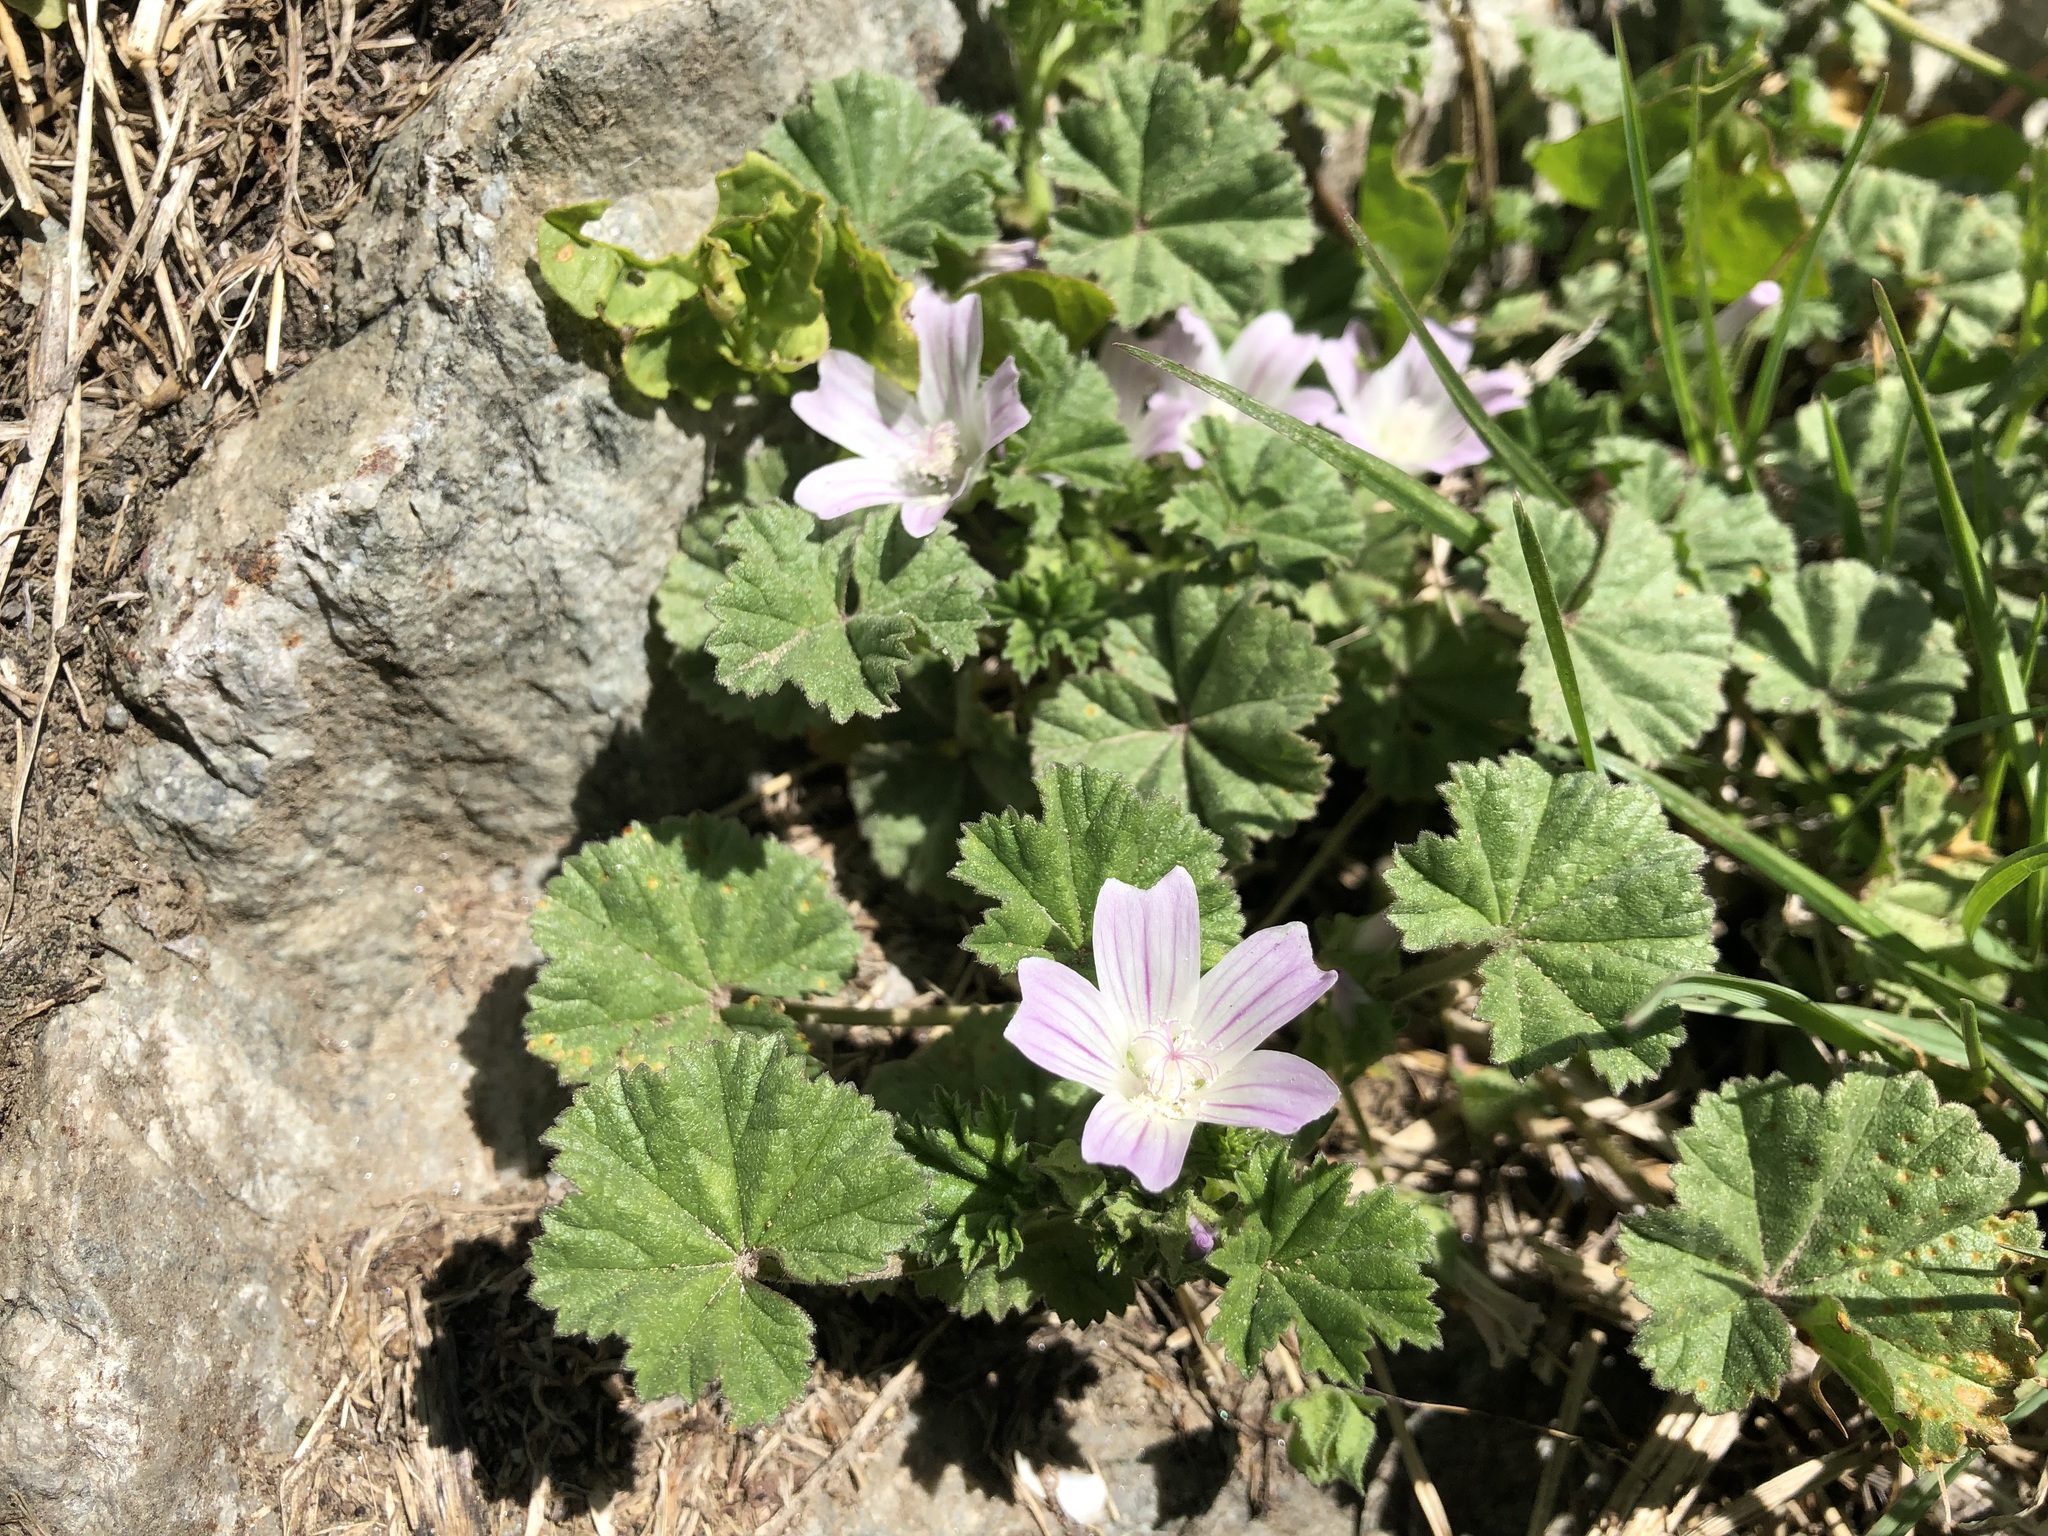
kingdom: Plantae
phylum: Tracheophyta
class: Magnoliopsida
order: Malvales
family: Malvaceae
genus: Malva
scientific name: Malva neglecta
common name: Common mallow
